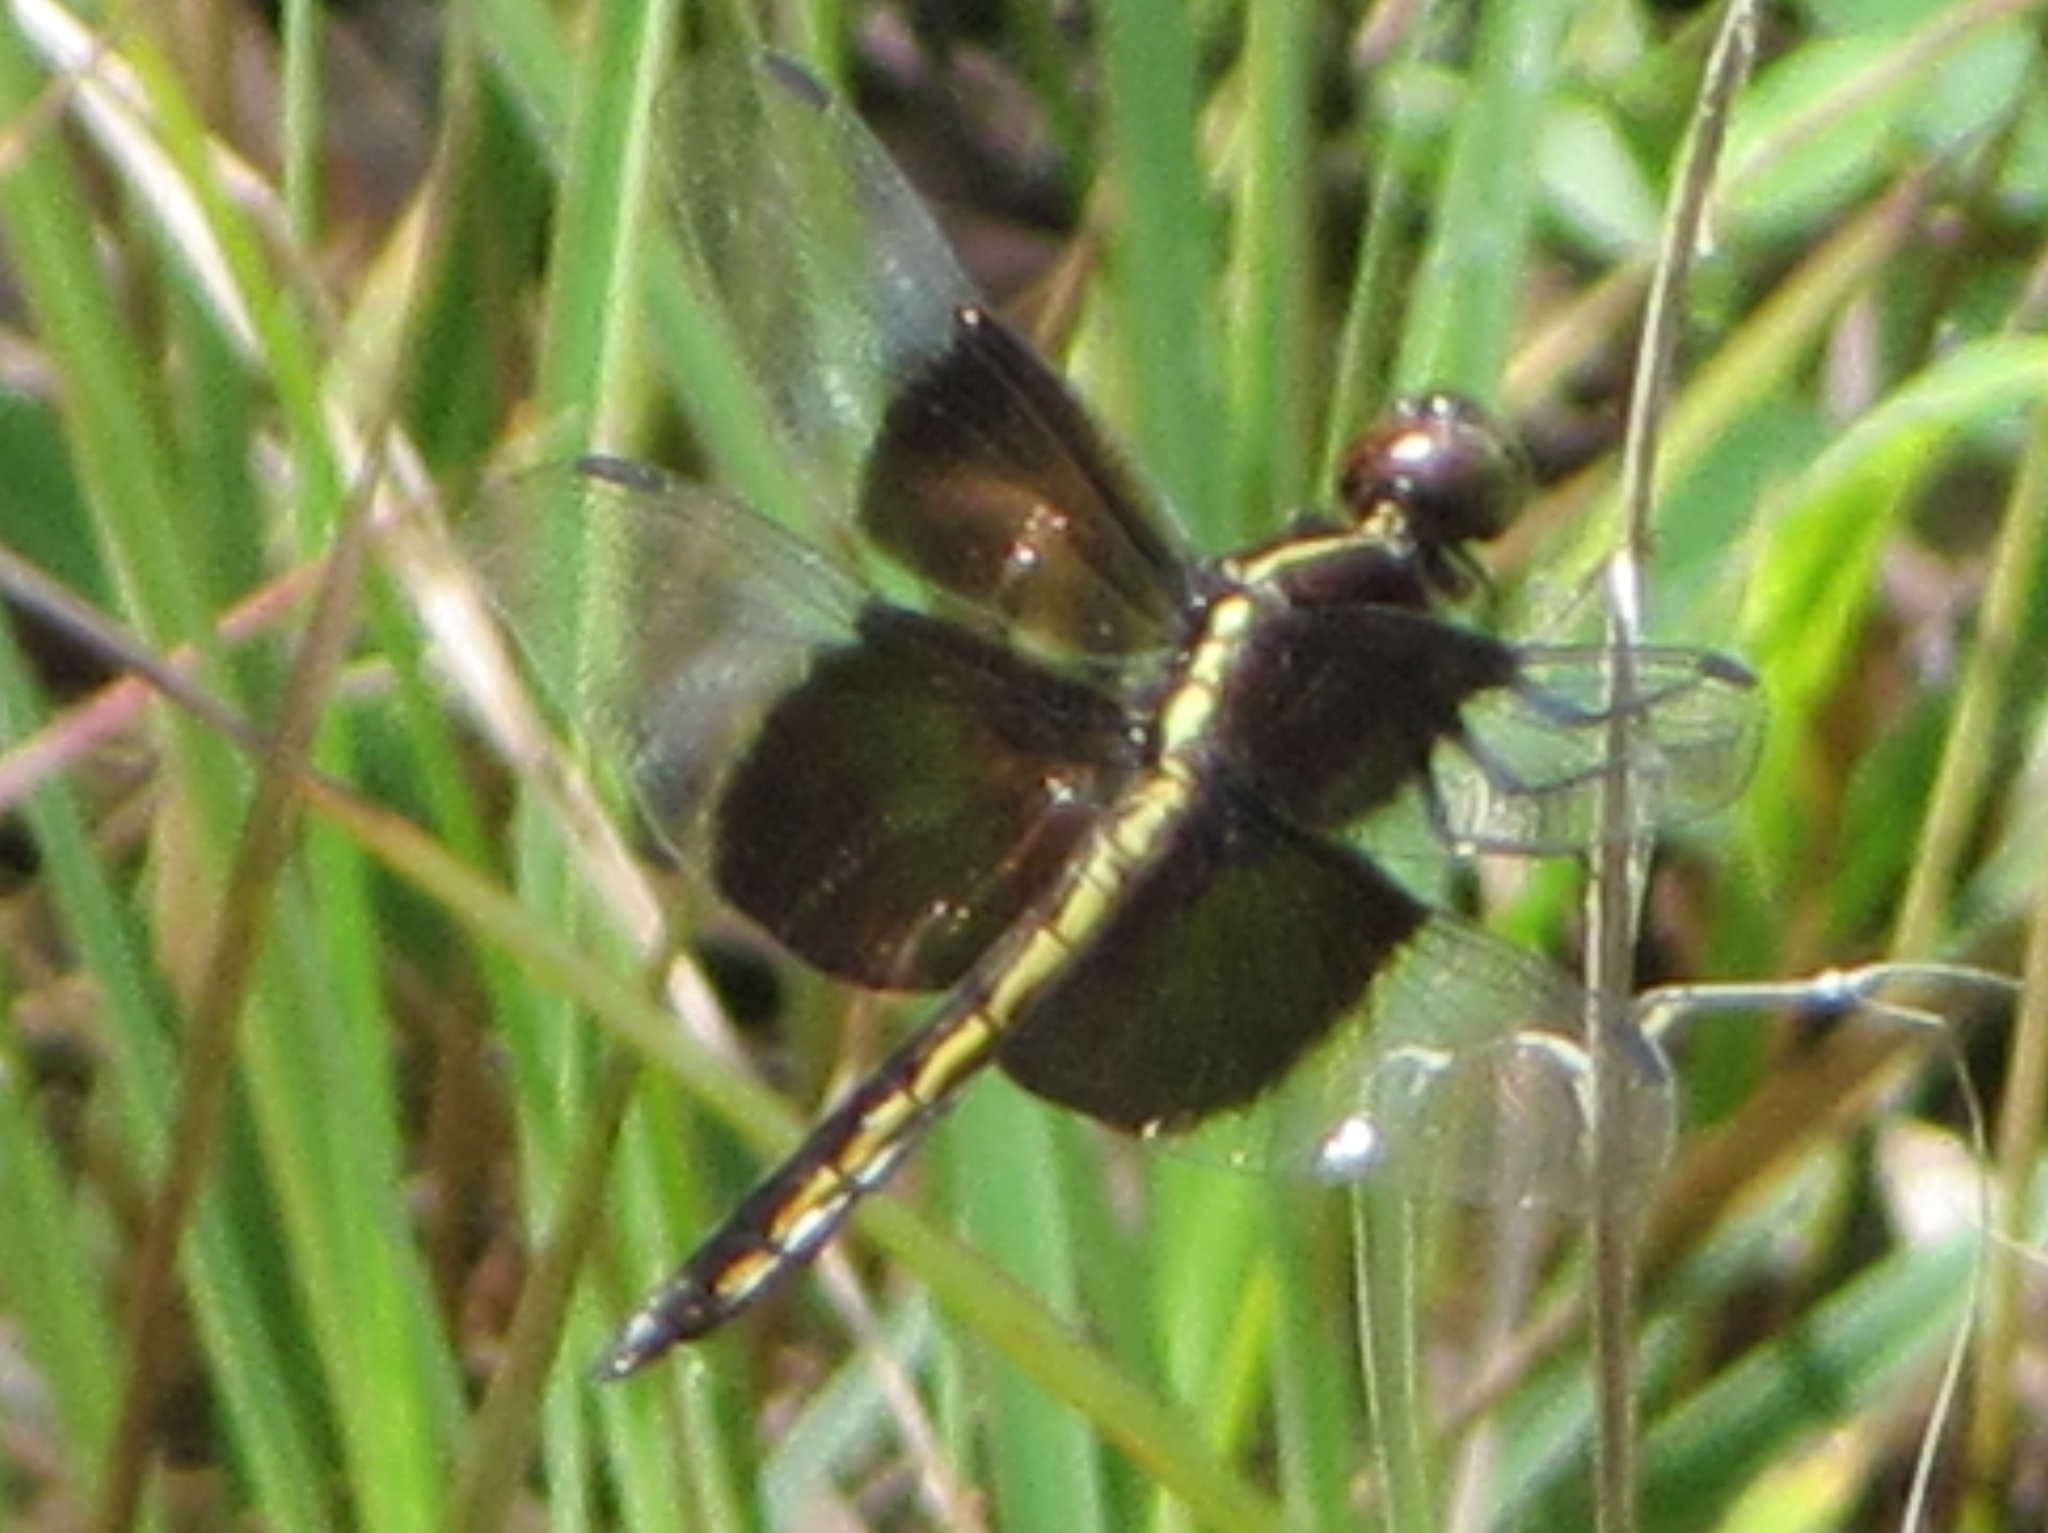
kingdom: Animalia
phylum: Arthropoda
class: Insecta
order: Odonata
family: Libellulidae
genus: Libellula
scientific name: Libellula luctuosa
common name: Widow skimmer
